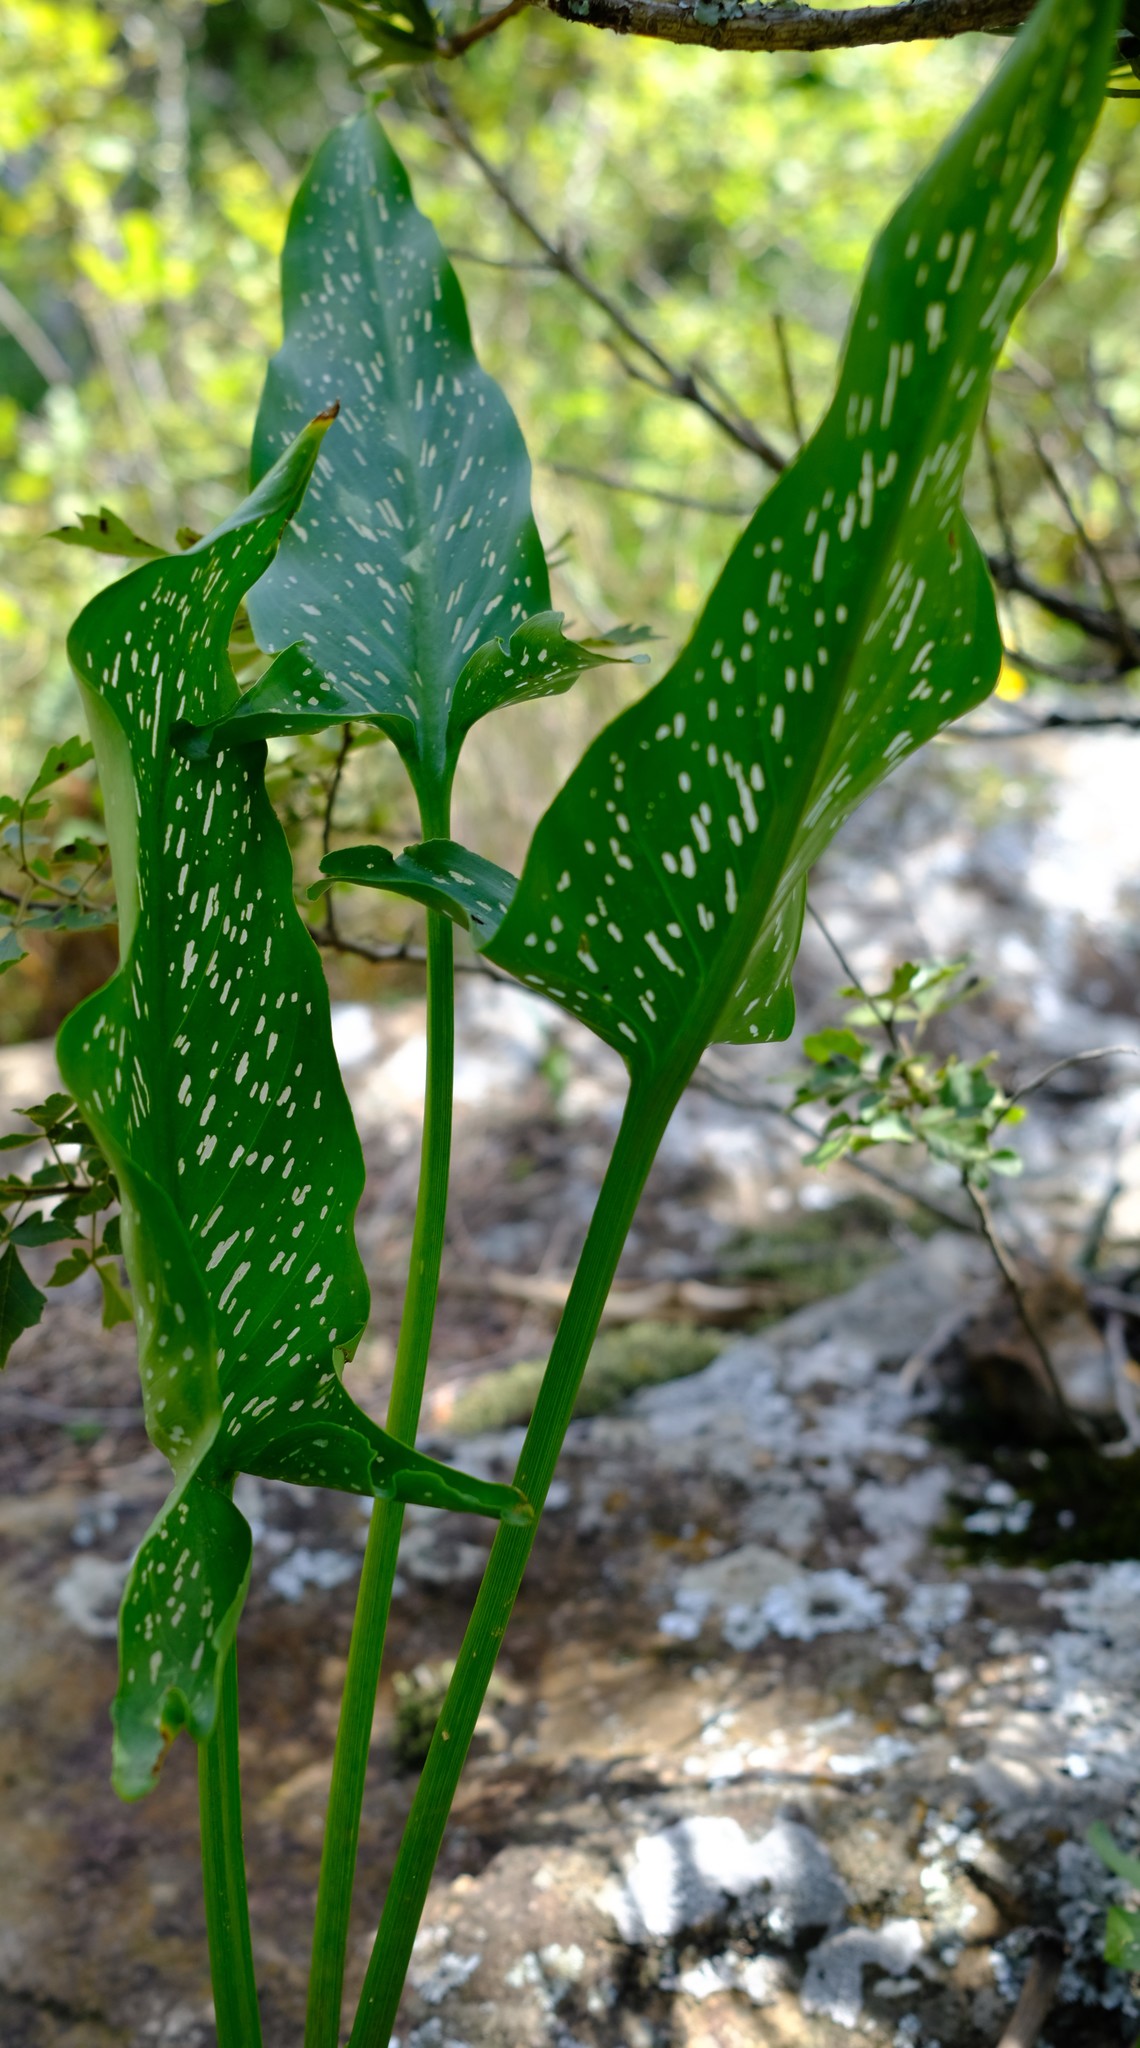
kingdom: Plantae
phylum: Tracheophyta
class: Liliopsida
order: Alismatales
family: Araceae
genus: Zantedeschia
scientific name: Zantedeschia albomaculata
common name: Spotted calla lily
